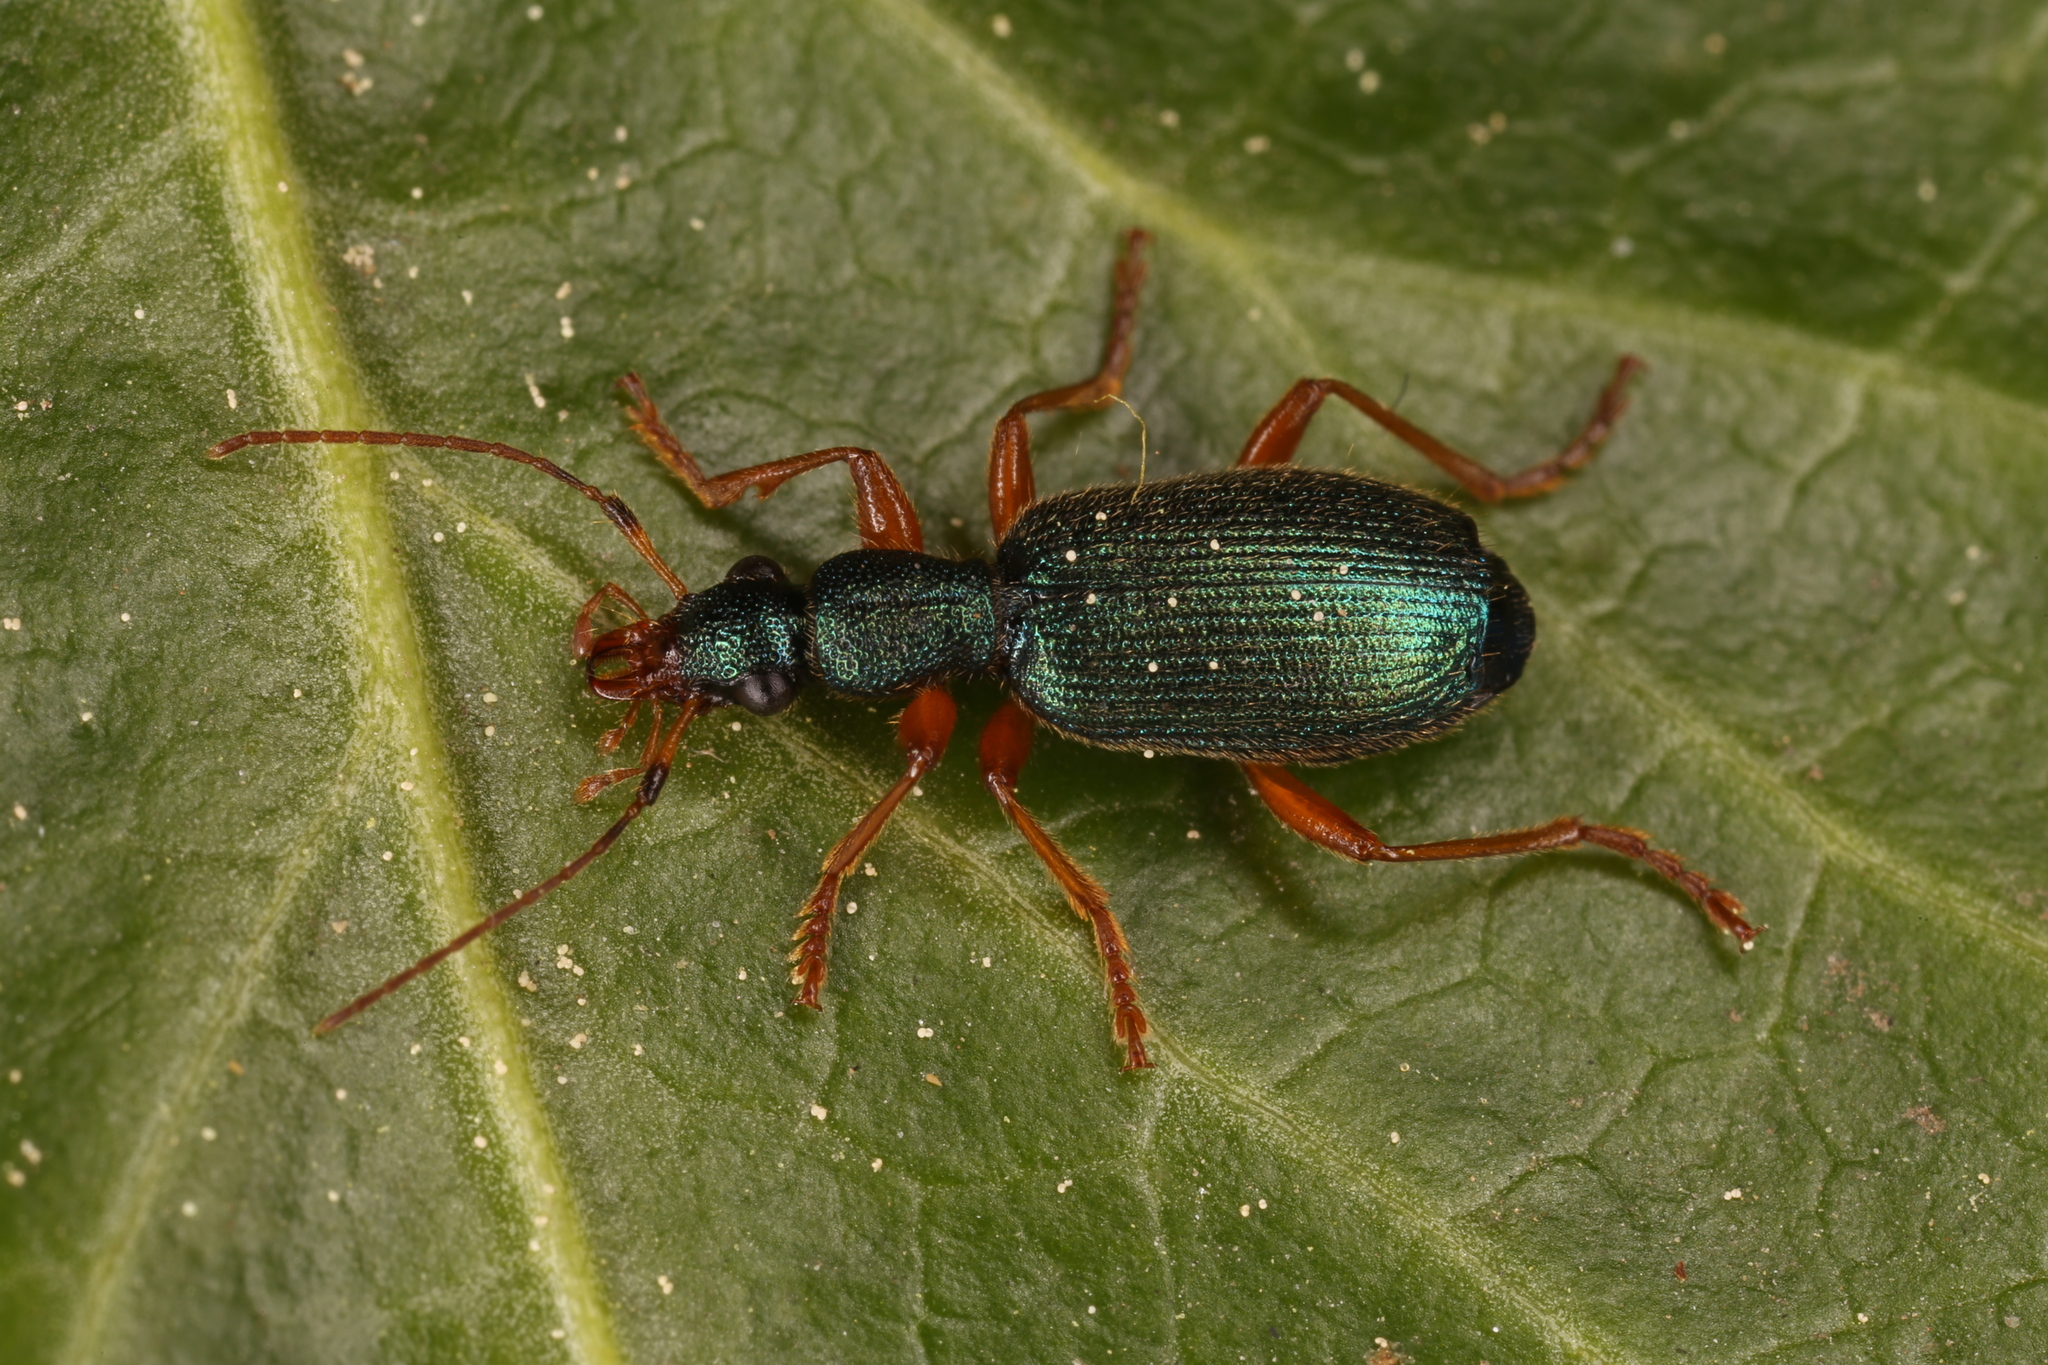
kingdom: Animalia
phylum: Arthropoda
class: Insecta
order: Coleoptera
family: Carabidae
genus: Drypta
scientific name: Drypta dentata
